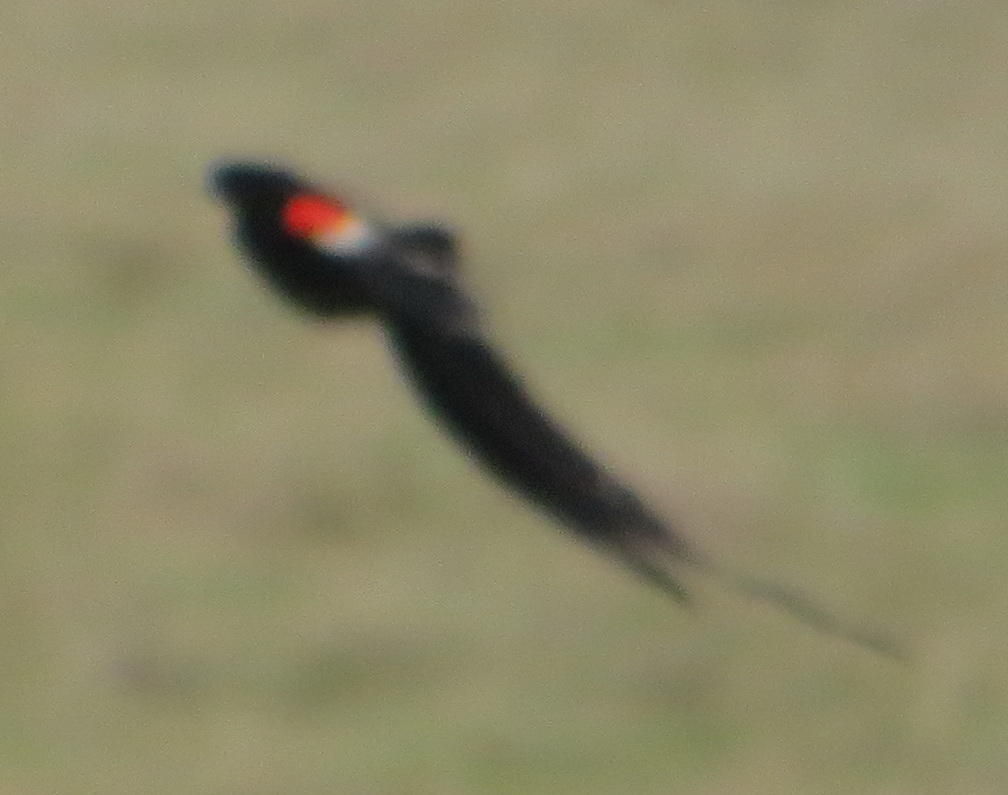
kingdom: Animalia
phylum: Chordata
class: Aves
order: Passeriformes
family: Ploceidae
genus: Euplectes
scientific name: Euplectes progne
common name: Long-tailed widowbird
